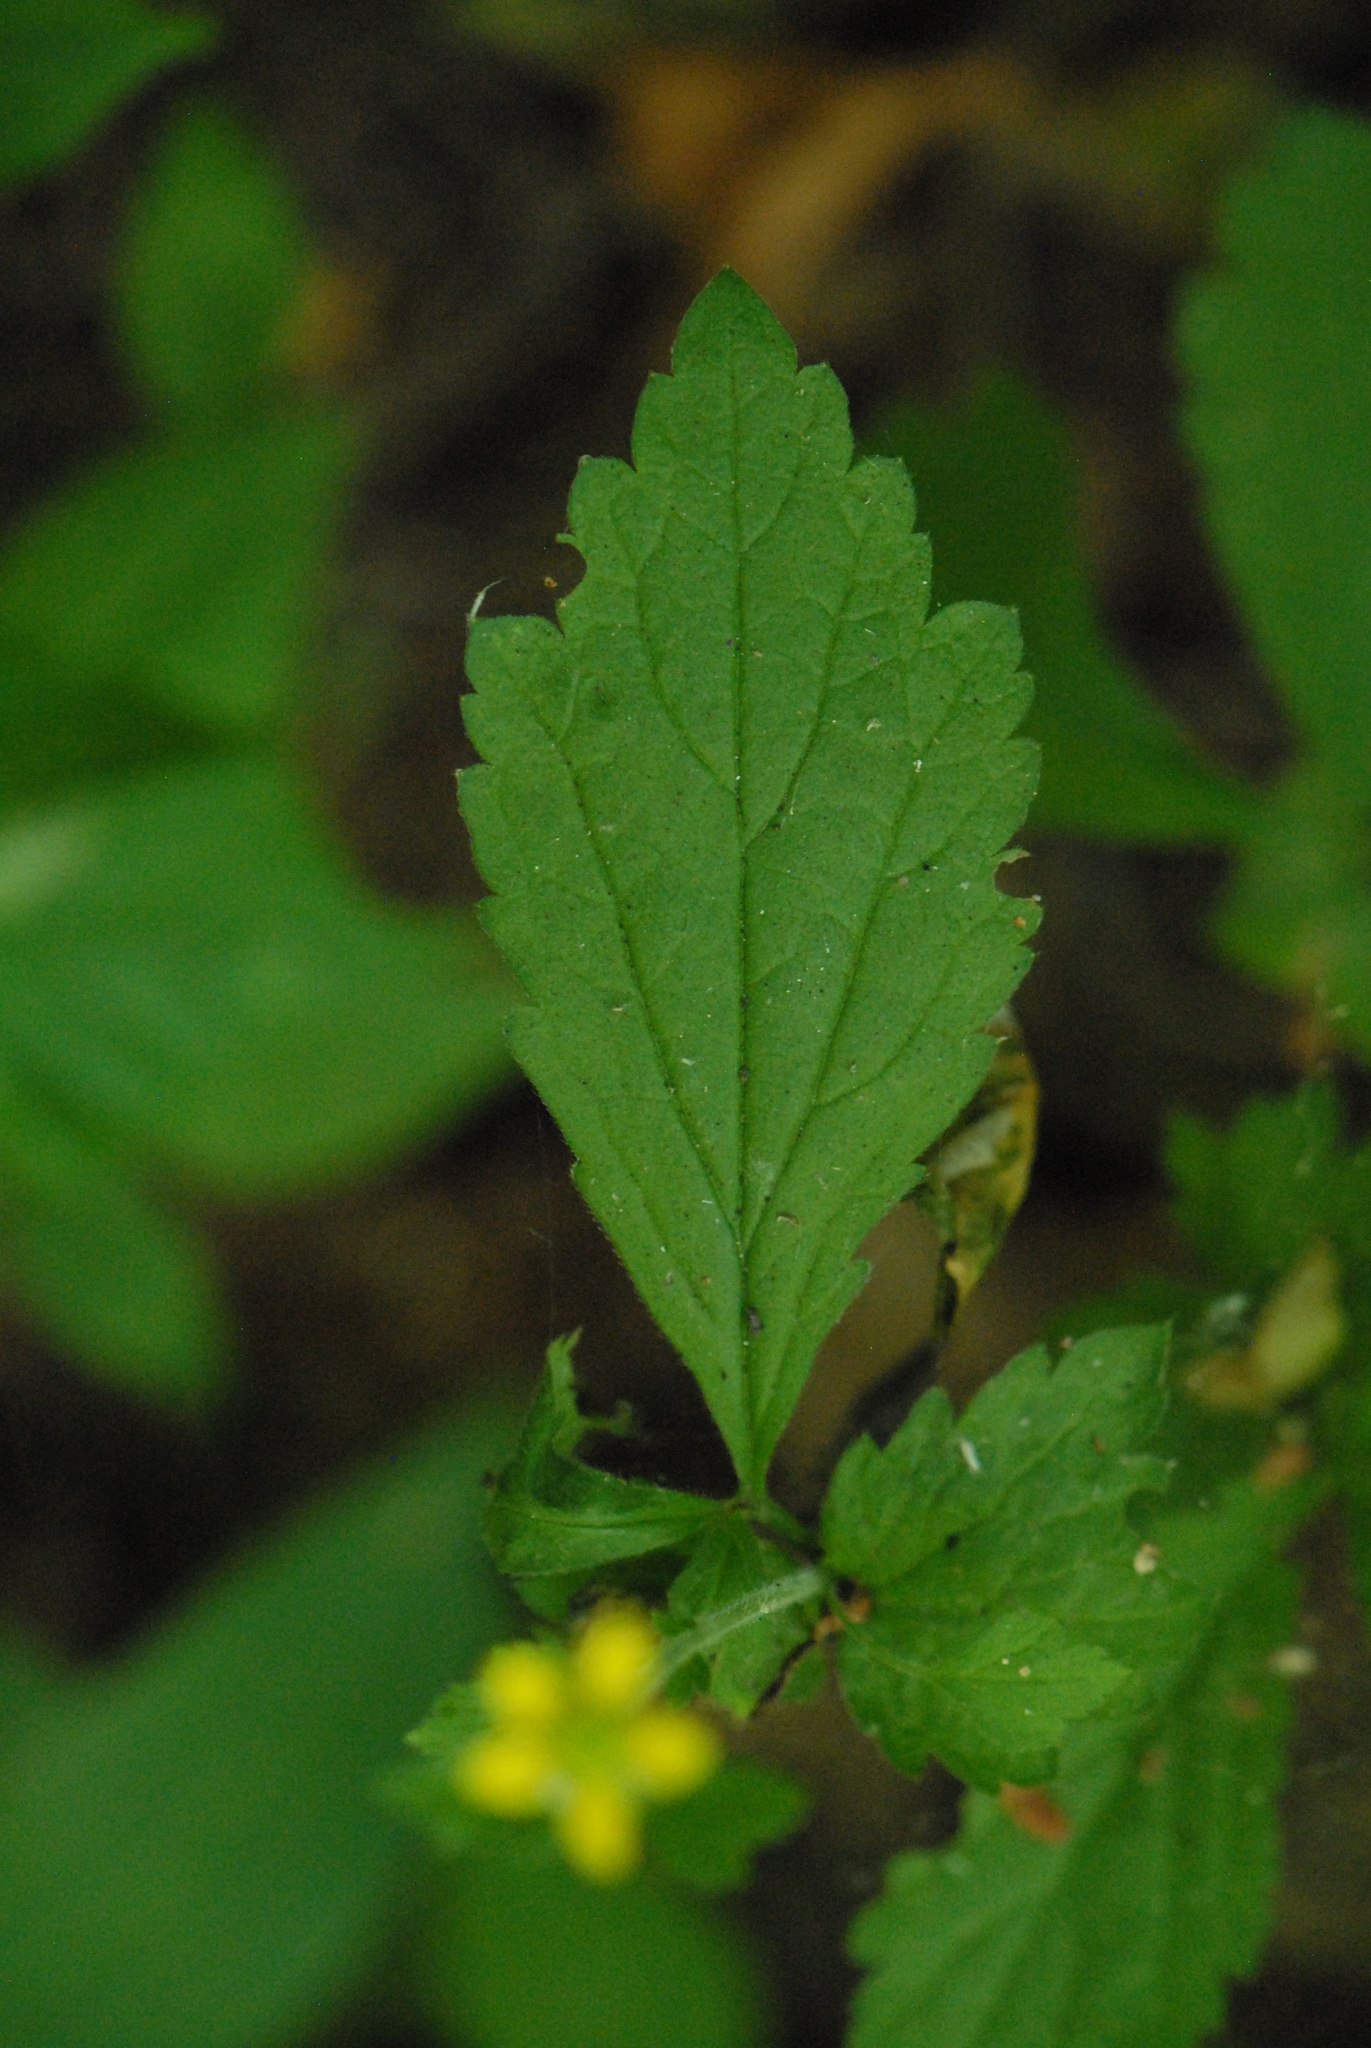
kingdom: Plantae
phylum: Tracheophyta
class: Magnoliopsida
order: Rosales
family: Rosaceae
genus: Geum
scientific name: Geum urbanum
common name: Wood avens
